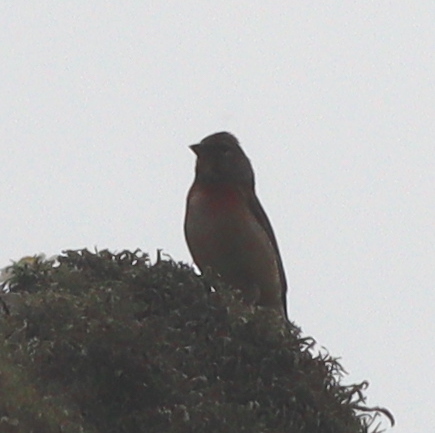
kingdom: Animalia
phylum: Chordata
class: Aves
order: Passeriformes
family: Fringillidae
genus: Linaria
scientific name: Linaria cannabina
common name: Common linnet
